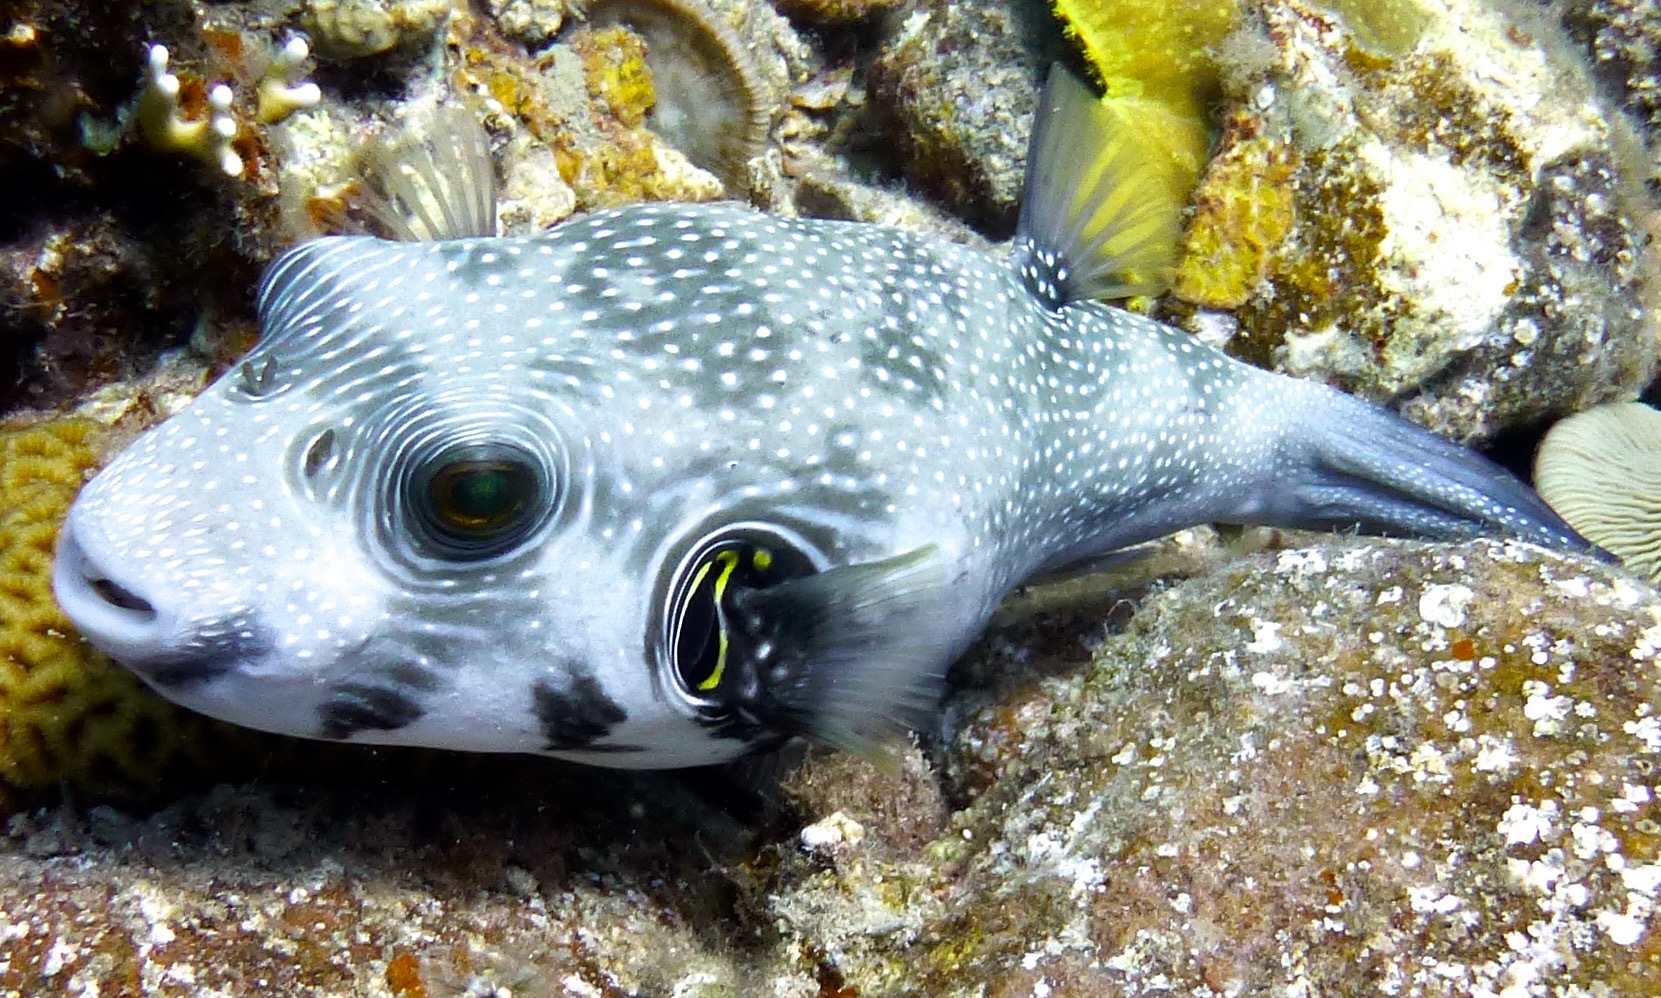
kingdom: Animalia
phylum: Chordata
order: Tetraodontiformes
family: Tetraodontidae
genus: Arothron
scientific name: Arothron hispidus
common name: Stripebelly puffer
